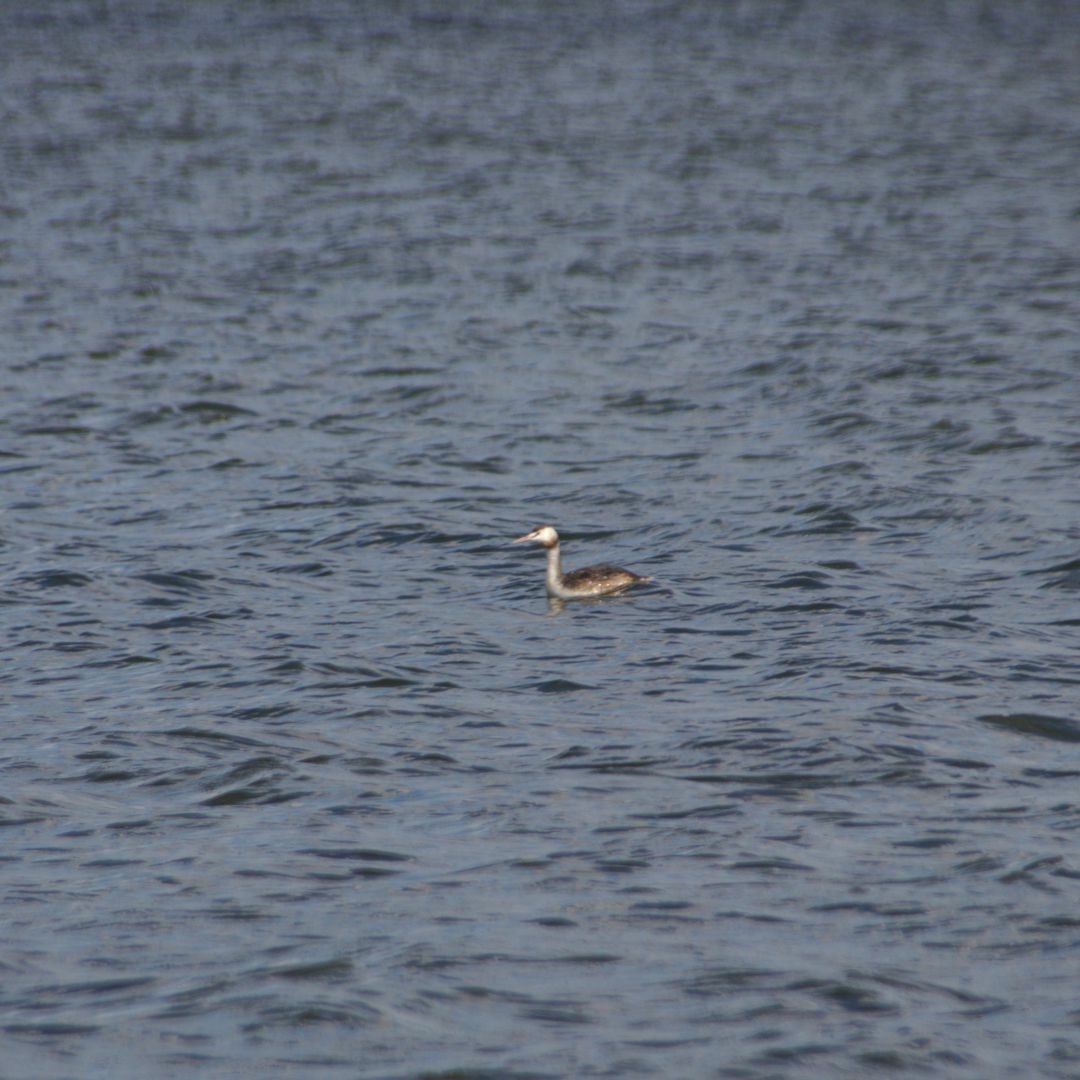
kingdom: Animalia
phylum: Chordata
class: Aves
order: Podicipediformes
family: Podicipedidae
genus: Podiceps
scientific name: Podiceps cristatus
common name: Great crested grebe
